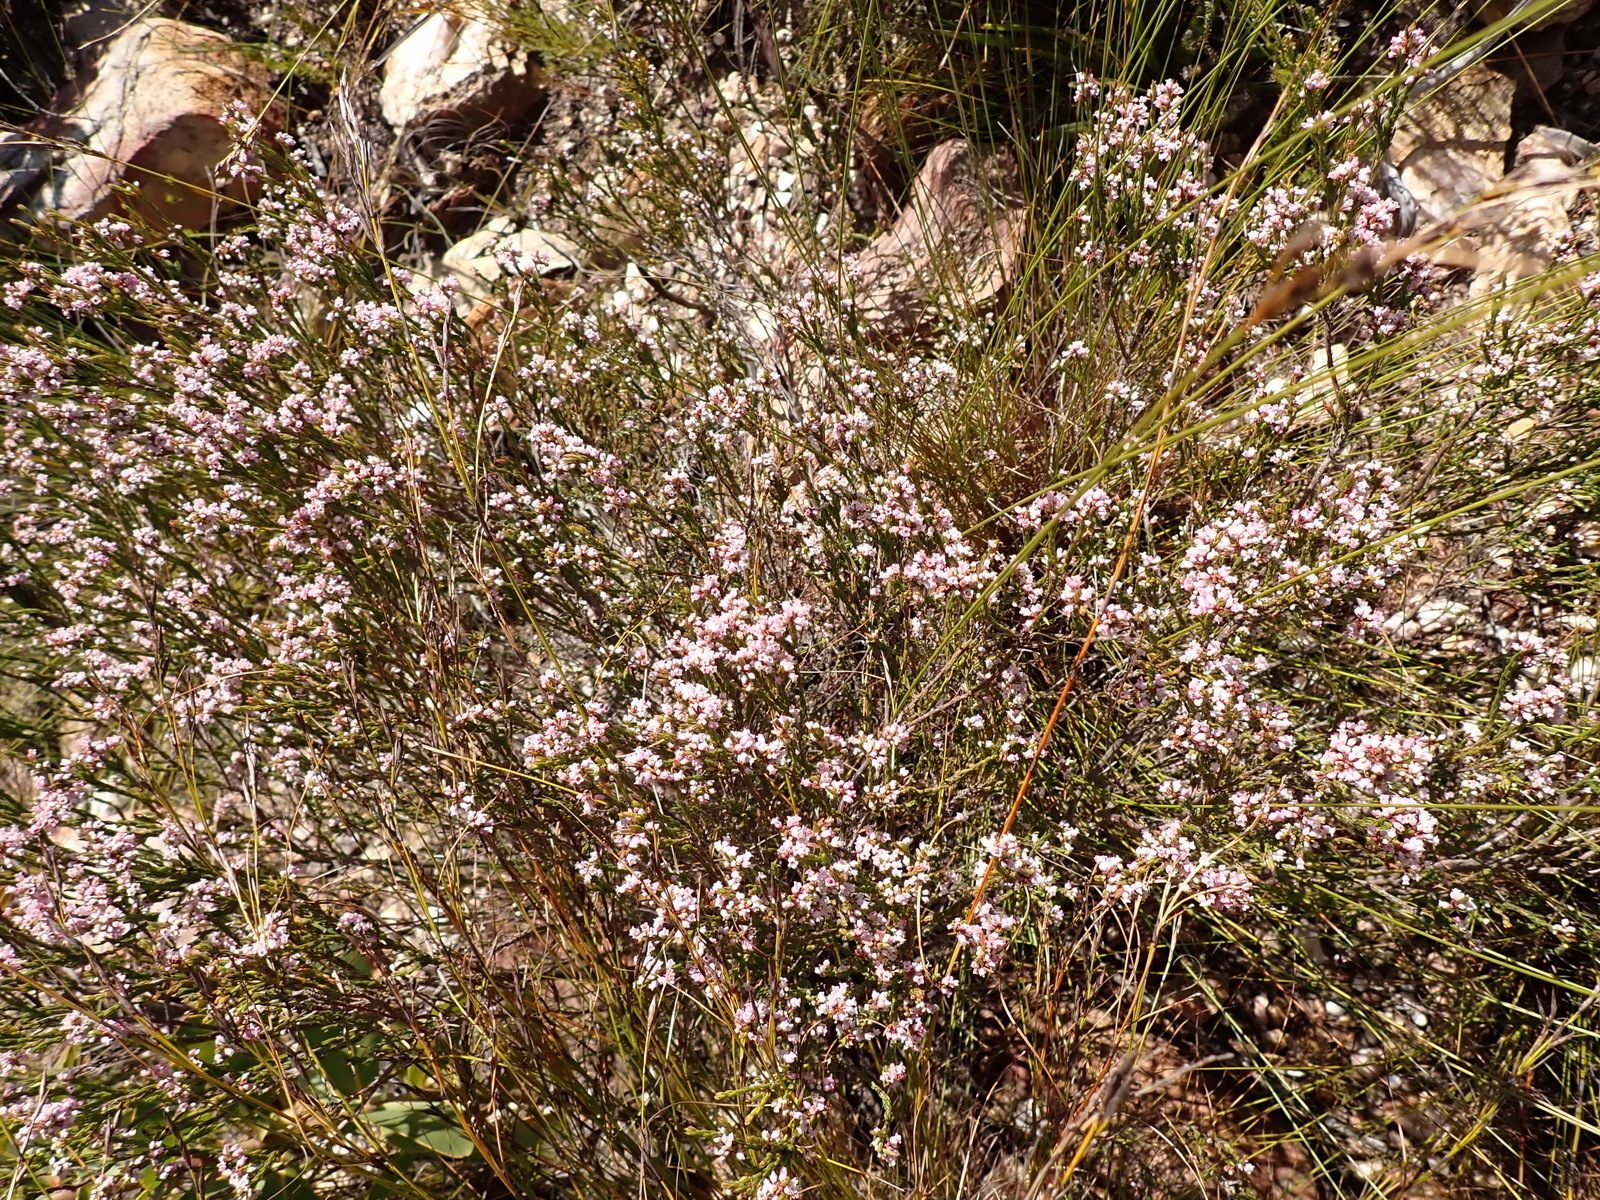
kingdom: Plantae
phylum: Tracheophyta
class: Magnoliopsida
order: Ericales
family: Ericaceae
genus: Erica
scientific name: Erica articularis
